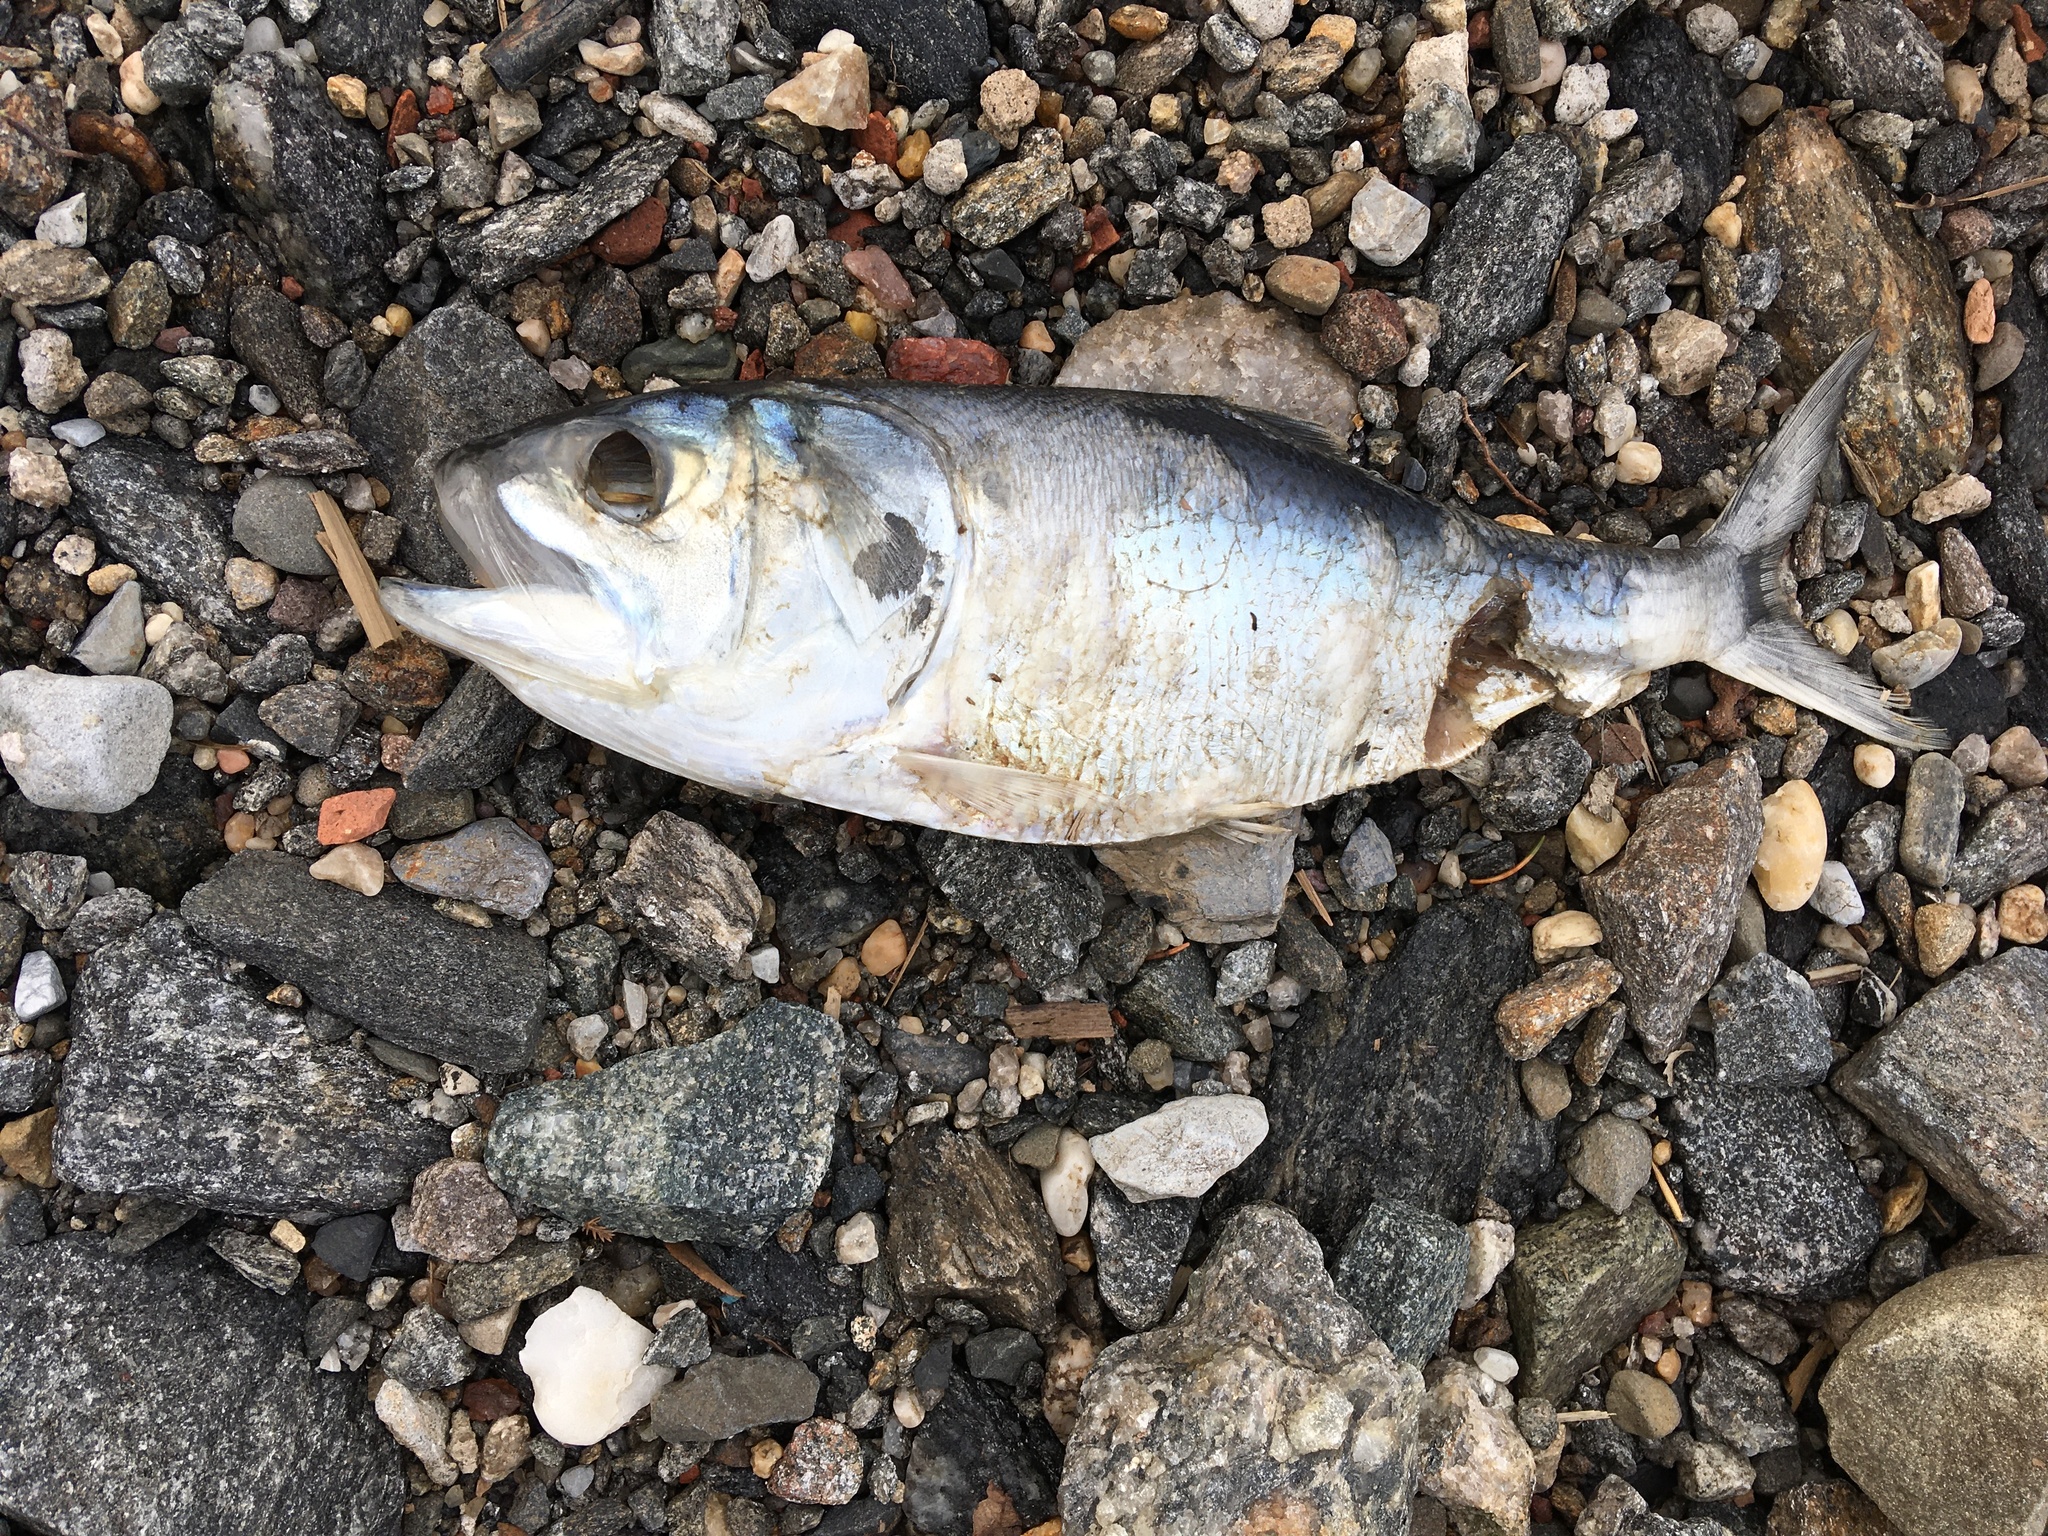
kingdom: Animalia
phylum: Chordata
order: Clupeiformes
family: Clupeidae
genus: Brevoortia
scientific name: Brevoortia tyrannus
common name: Atlantic menhaden
